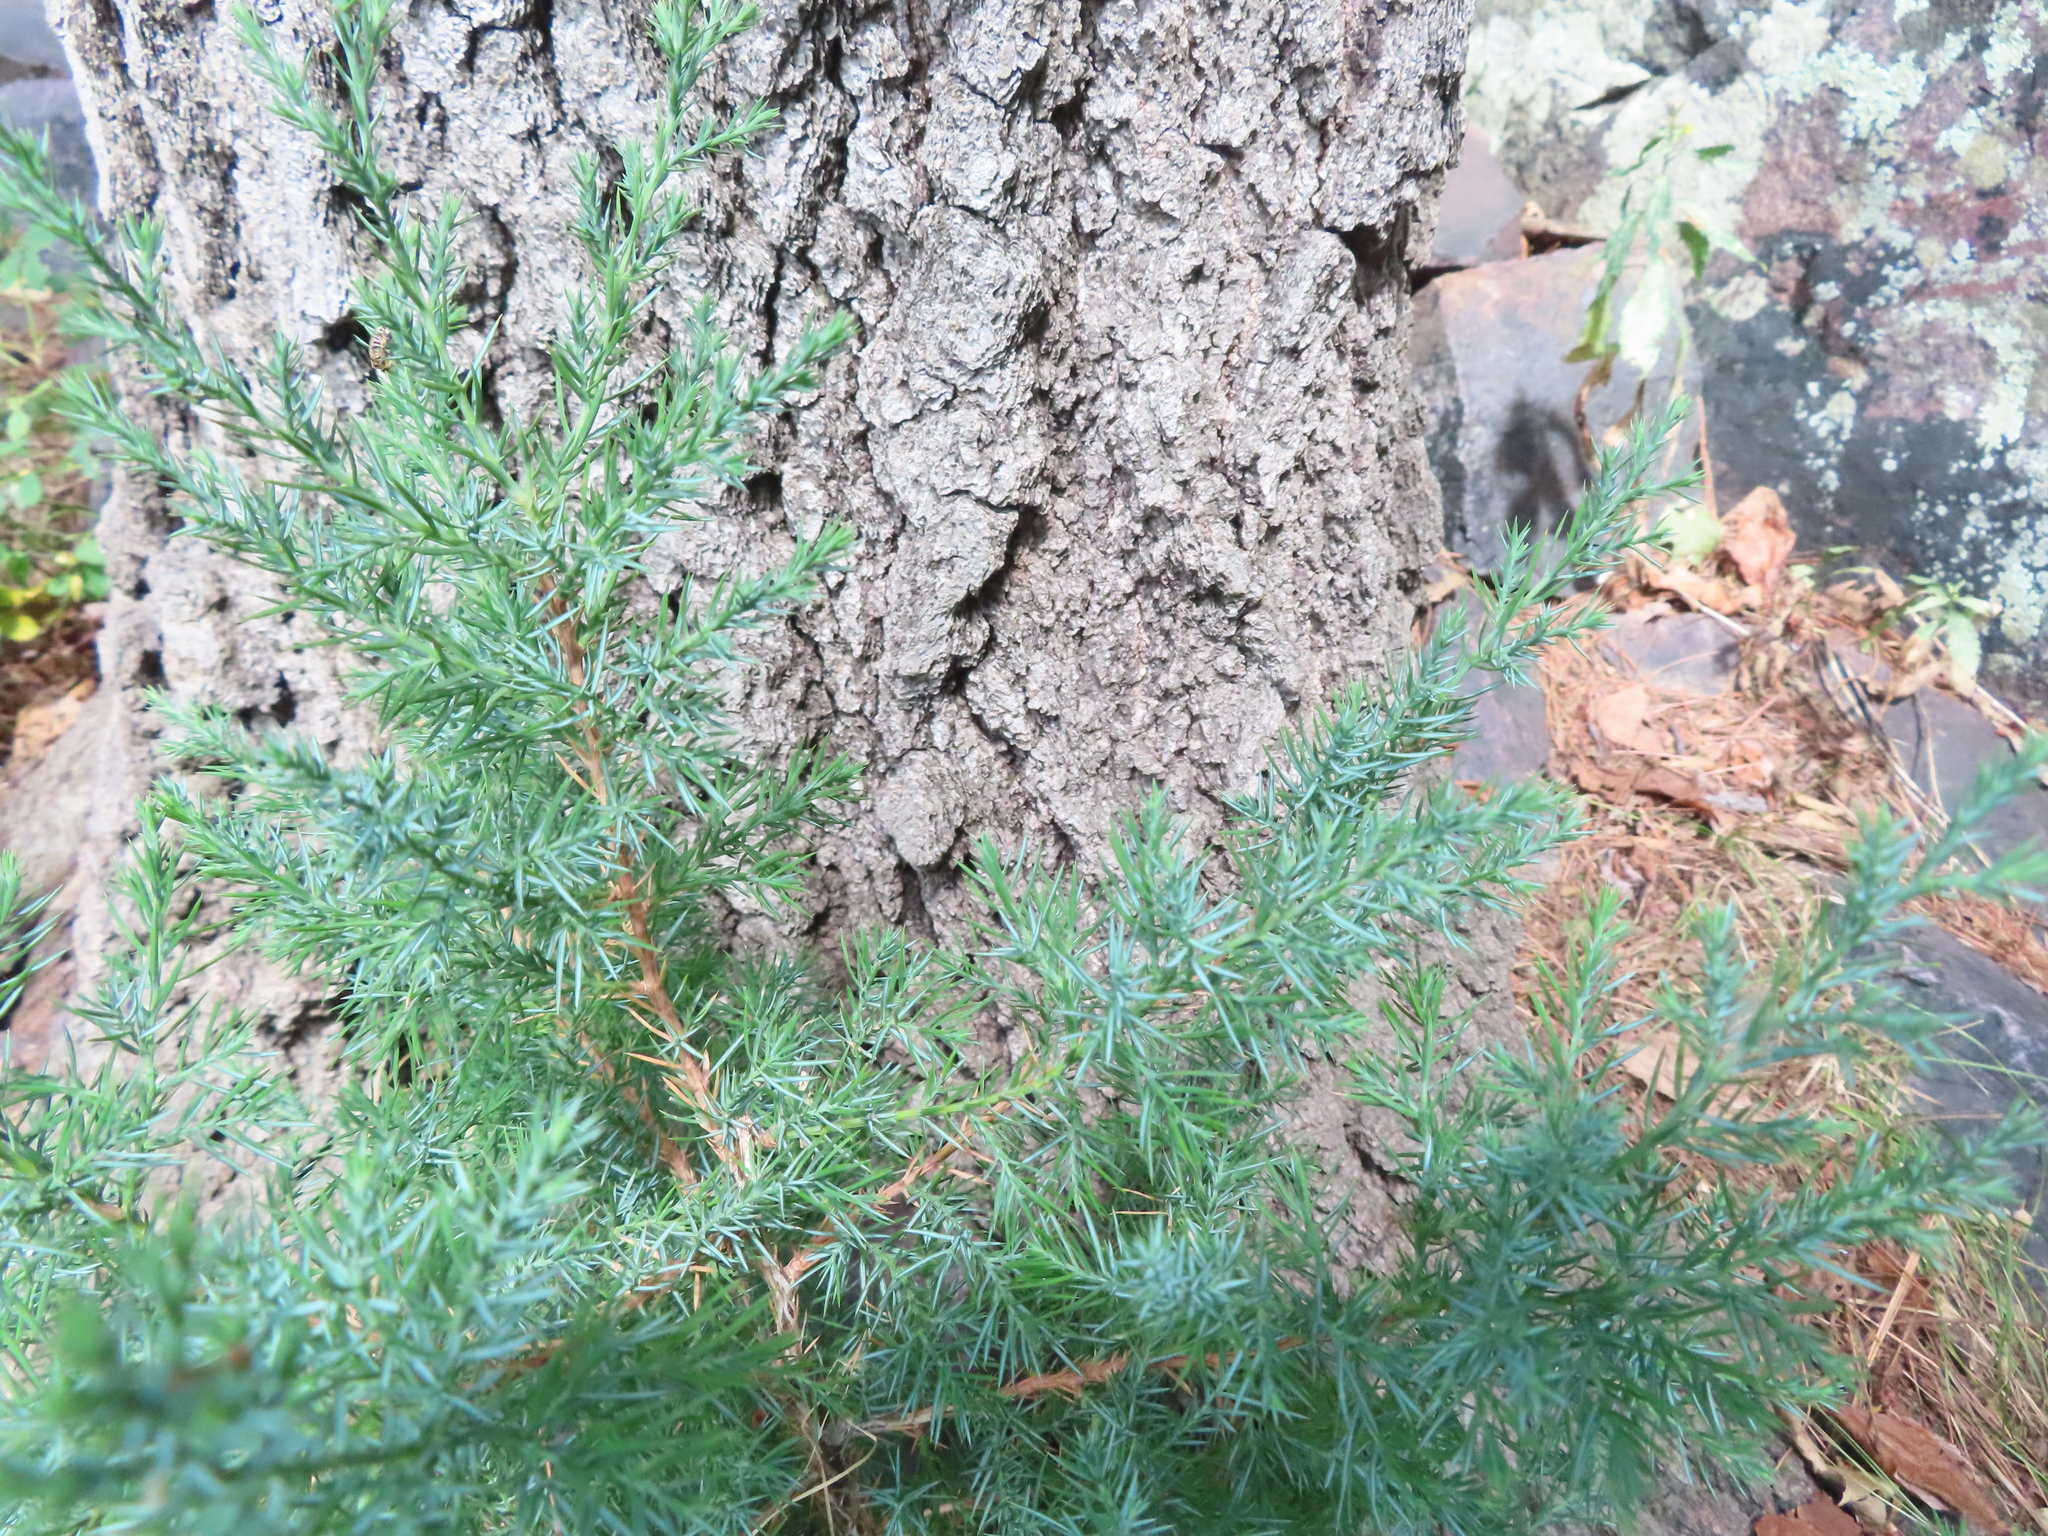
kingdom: Plantae
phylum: Tracheophyta
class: Pinopsida
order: Pinales
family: Cupressaceae
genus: Juniperus
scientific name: Juniperus virginiana
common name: Red juniper
